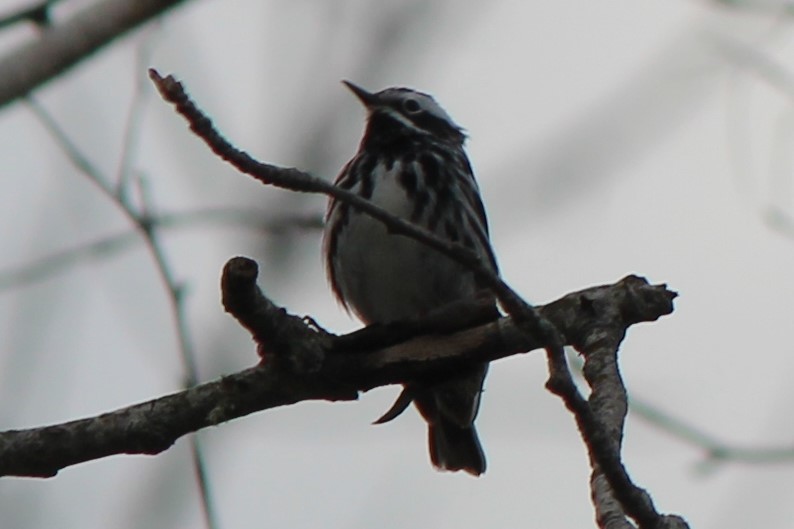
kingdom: Animalia
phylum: Chordata
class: Aves
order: Passeriformes
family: Parulidae
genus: Mniotilta
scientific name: Mniotilta varia
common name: Black-and-white warbler
